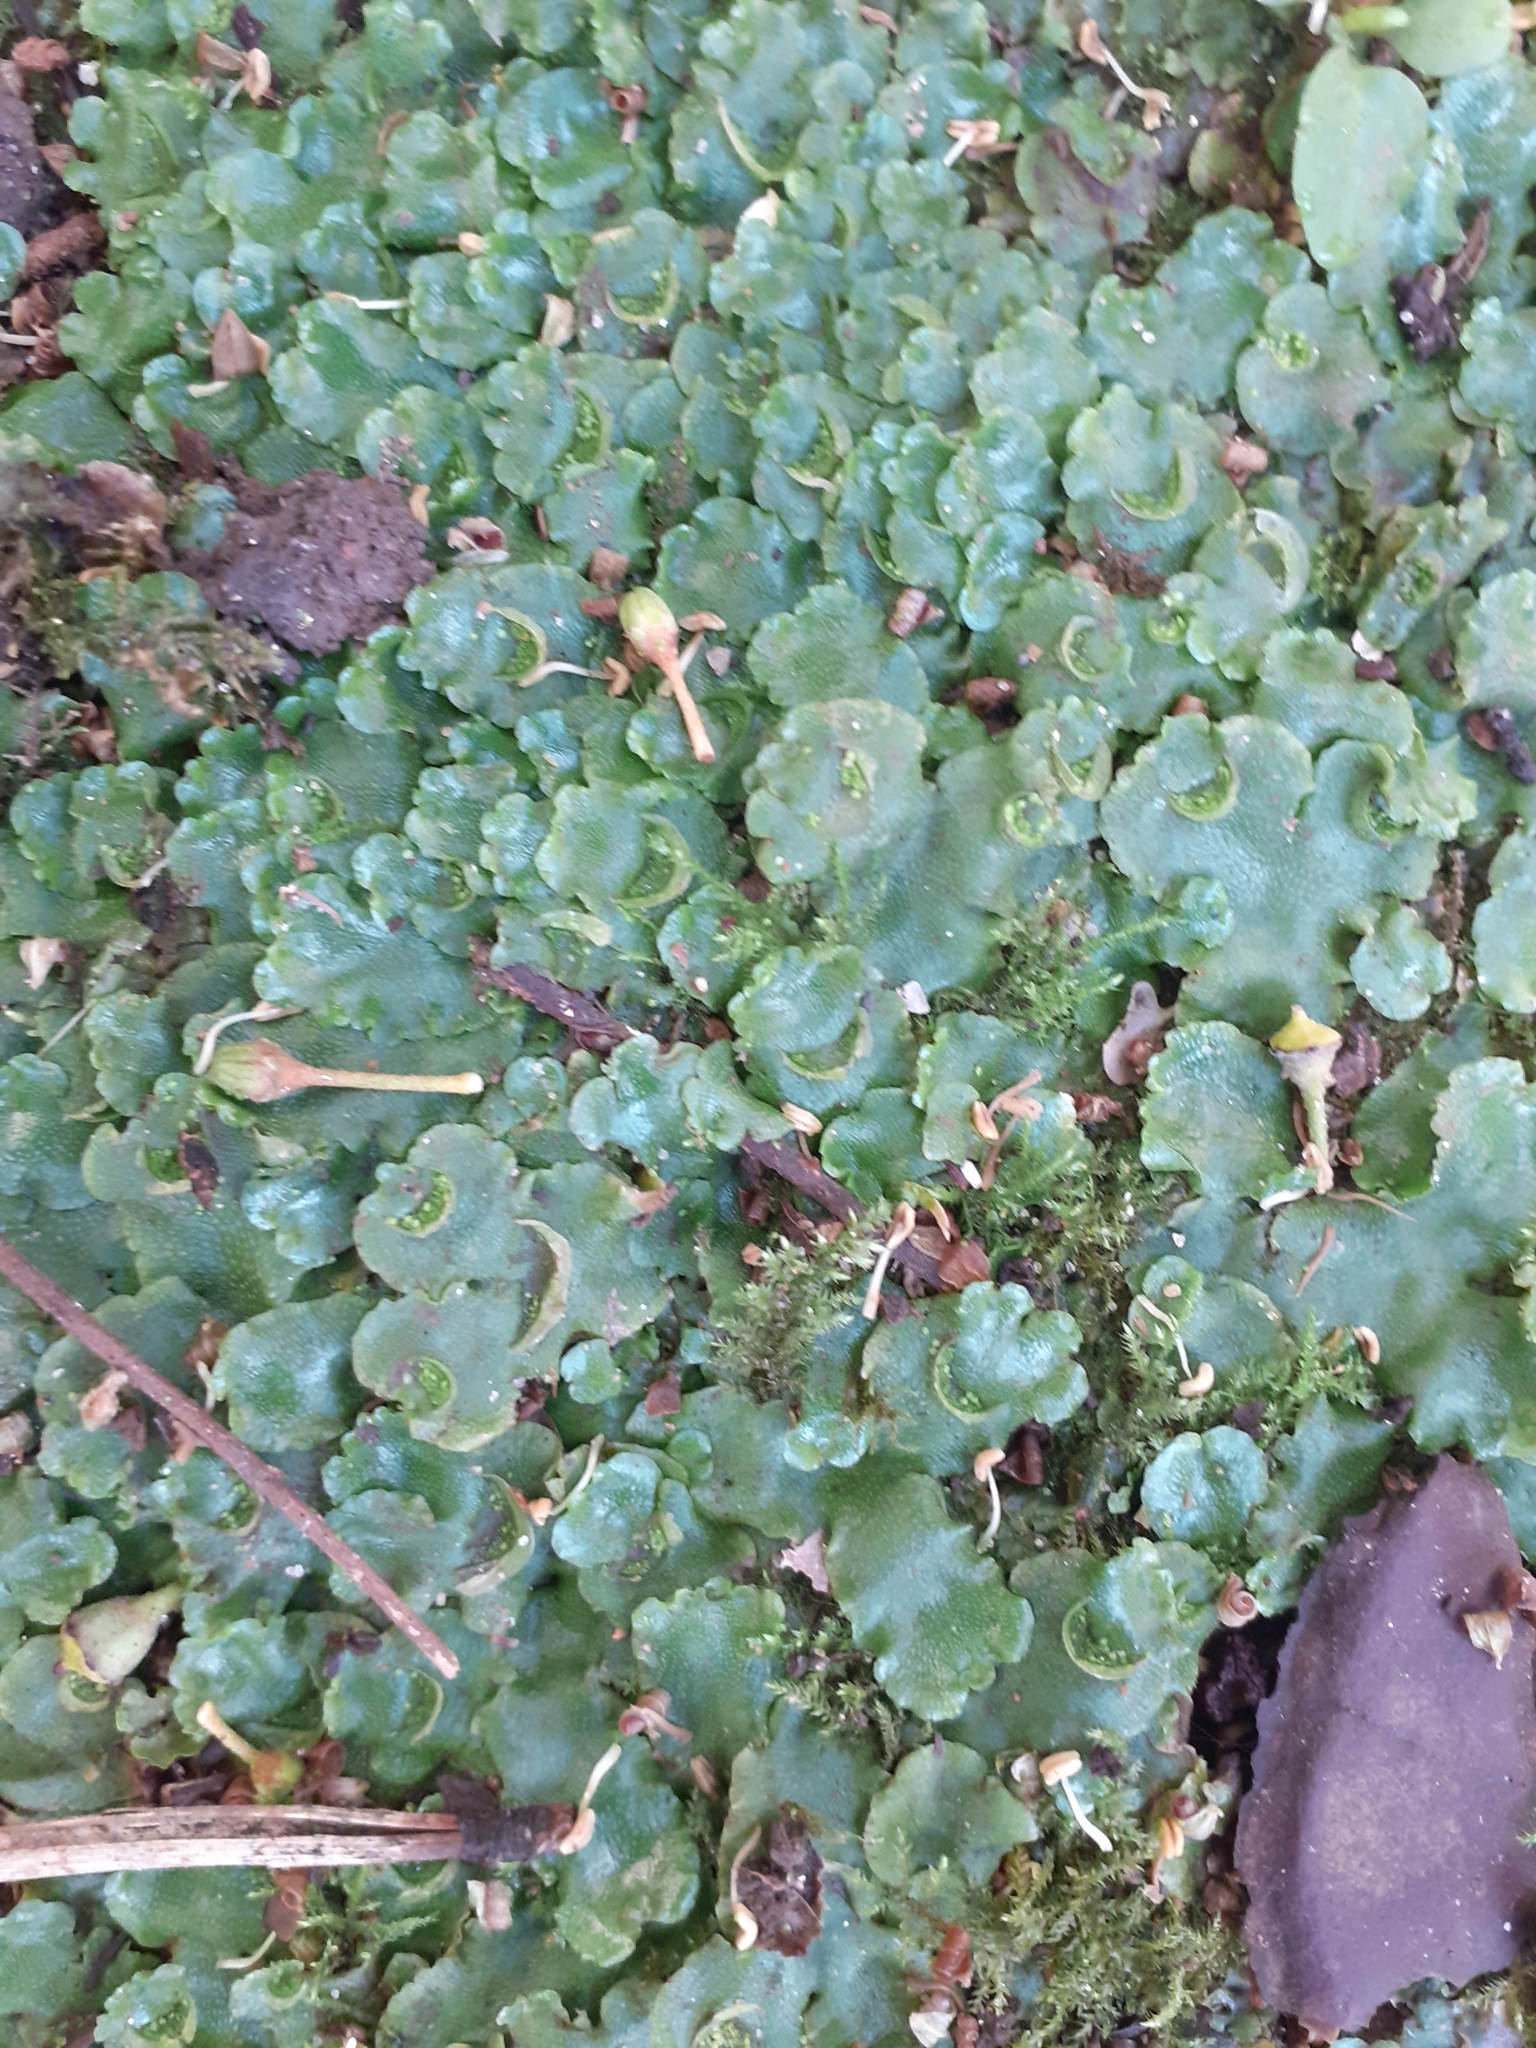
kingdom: Plantae
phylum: Marchantiophyta
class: Marchantiopsida
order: Lunulariales
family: Lunulariaceae
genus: Lunularia
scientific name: Lunularia cruciata
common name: Crescent-cup liverwort
